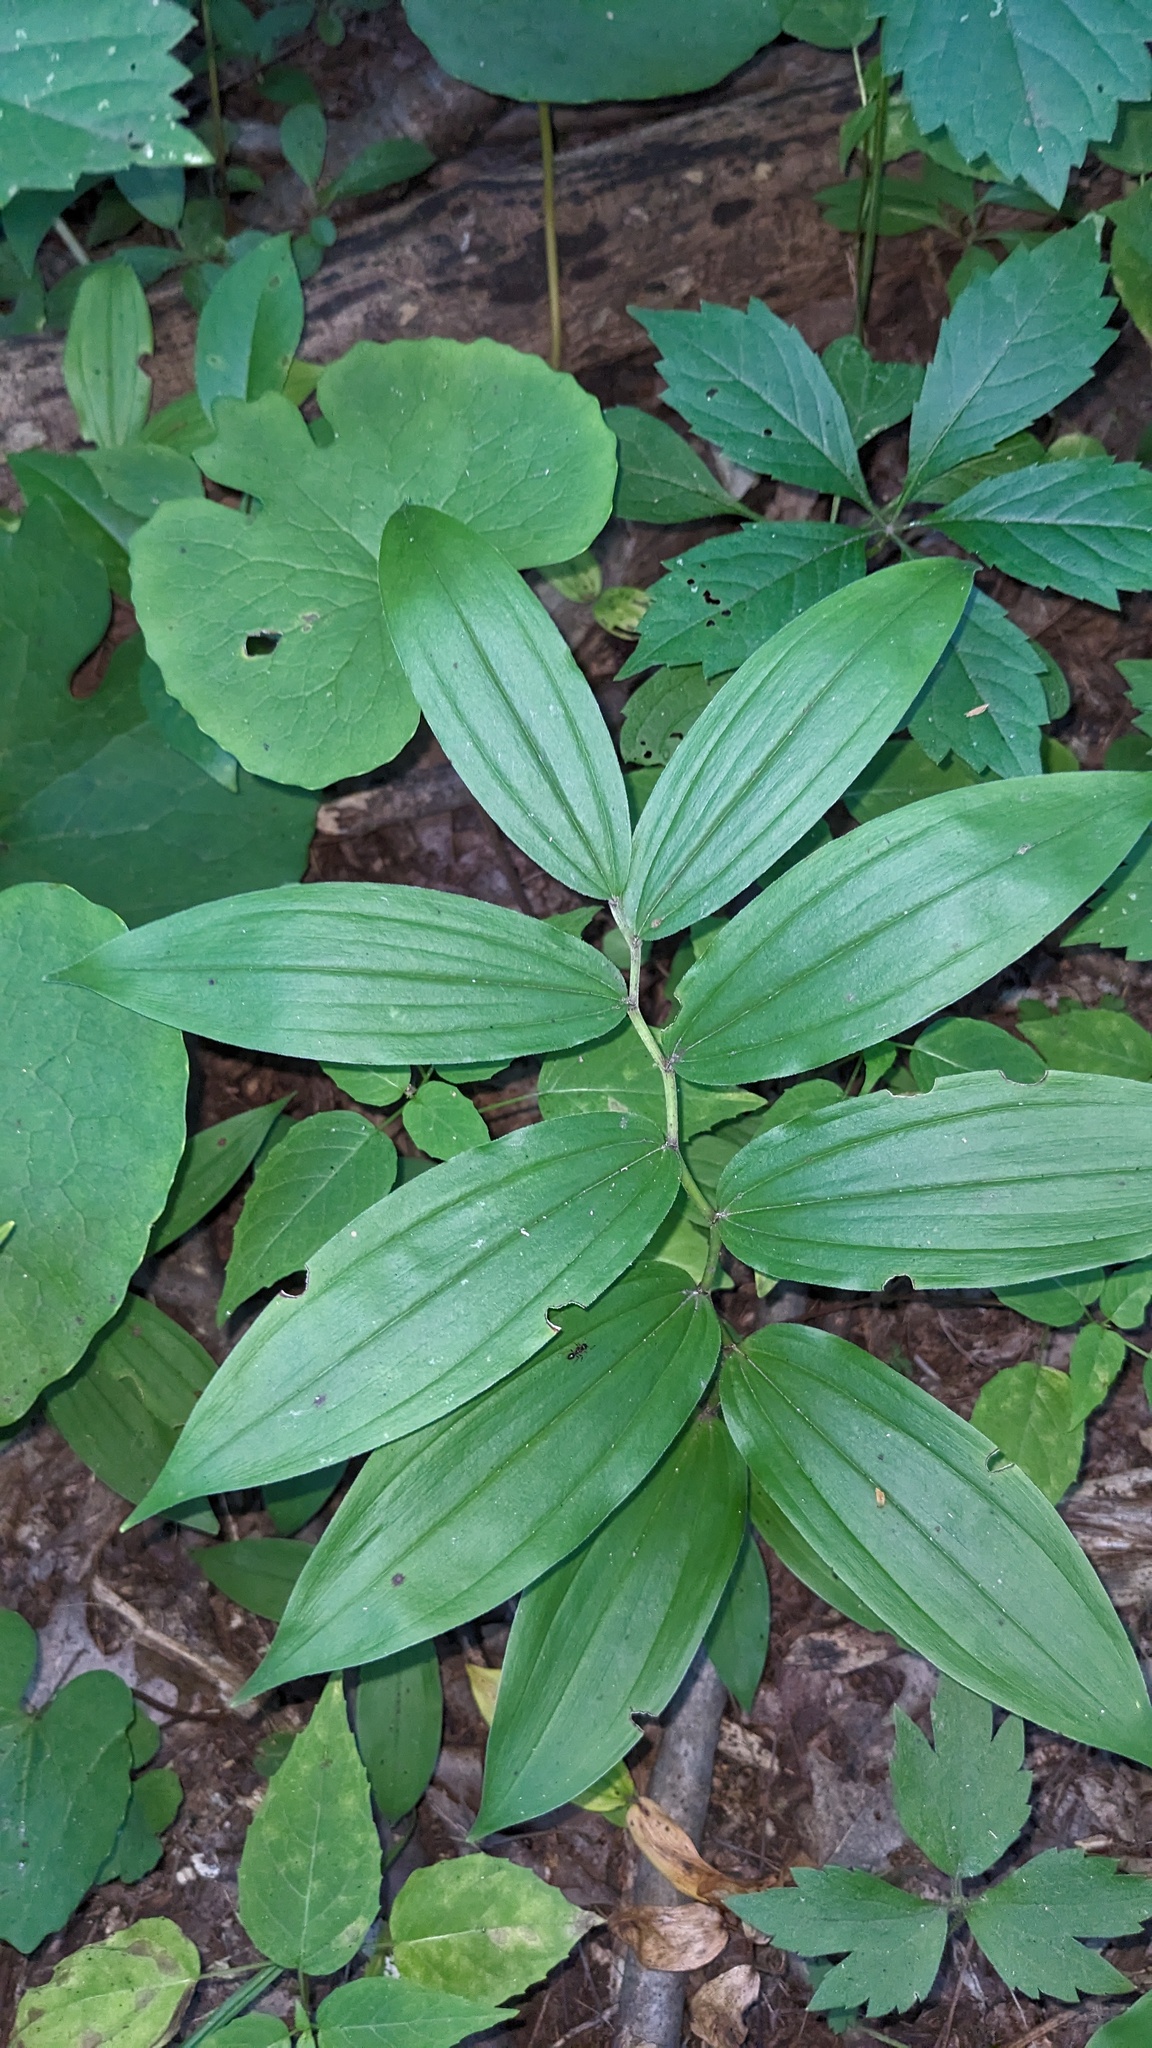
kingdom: Plantae
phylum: Tracheophyta
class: Liliopsida
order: Asparagales
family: Asparagaceae
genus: Maianthemum
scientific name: Maianthemum racemosum
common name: False spikenard
